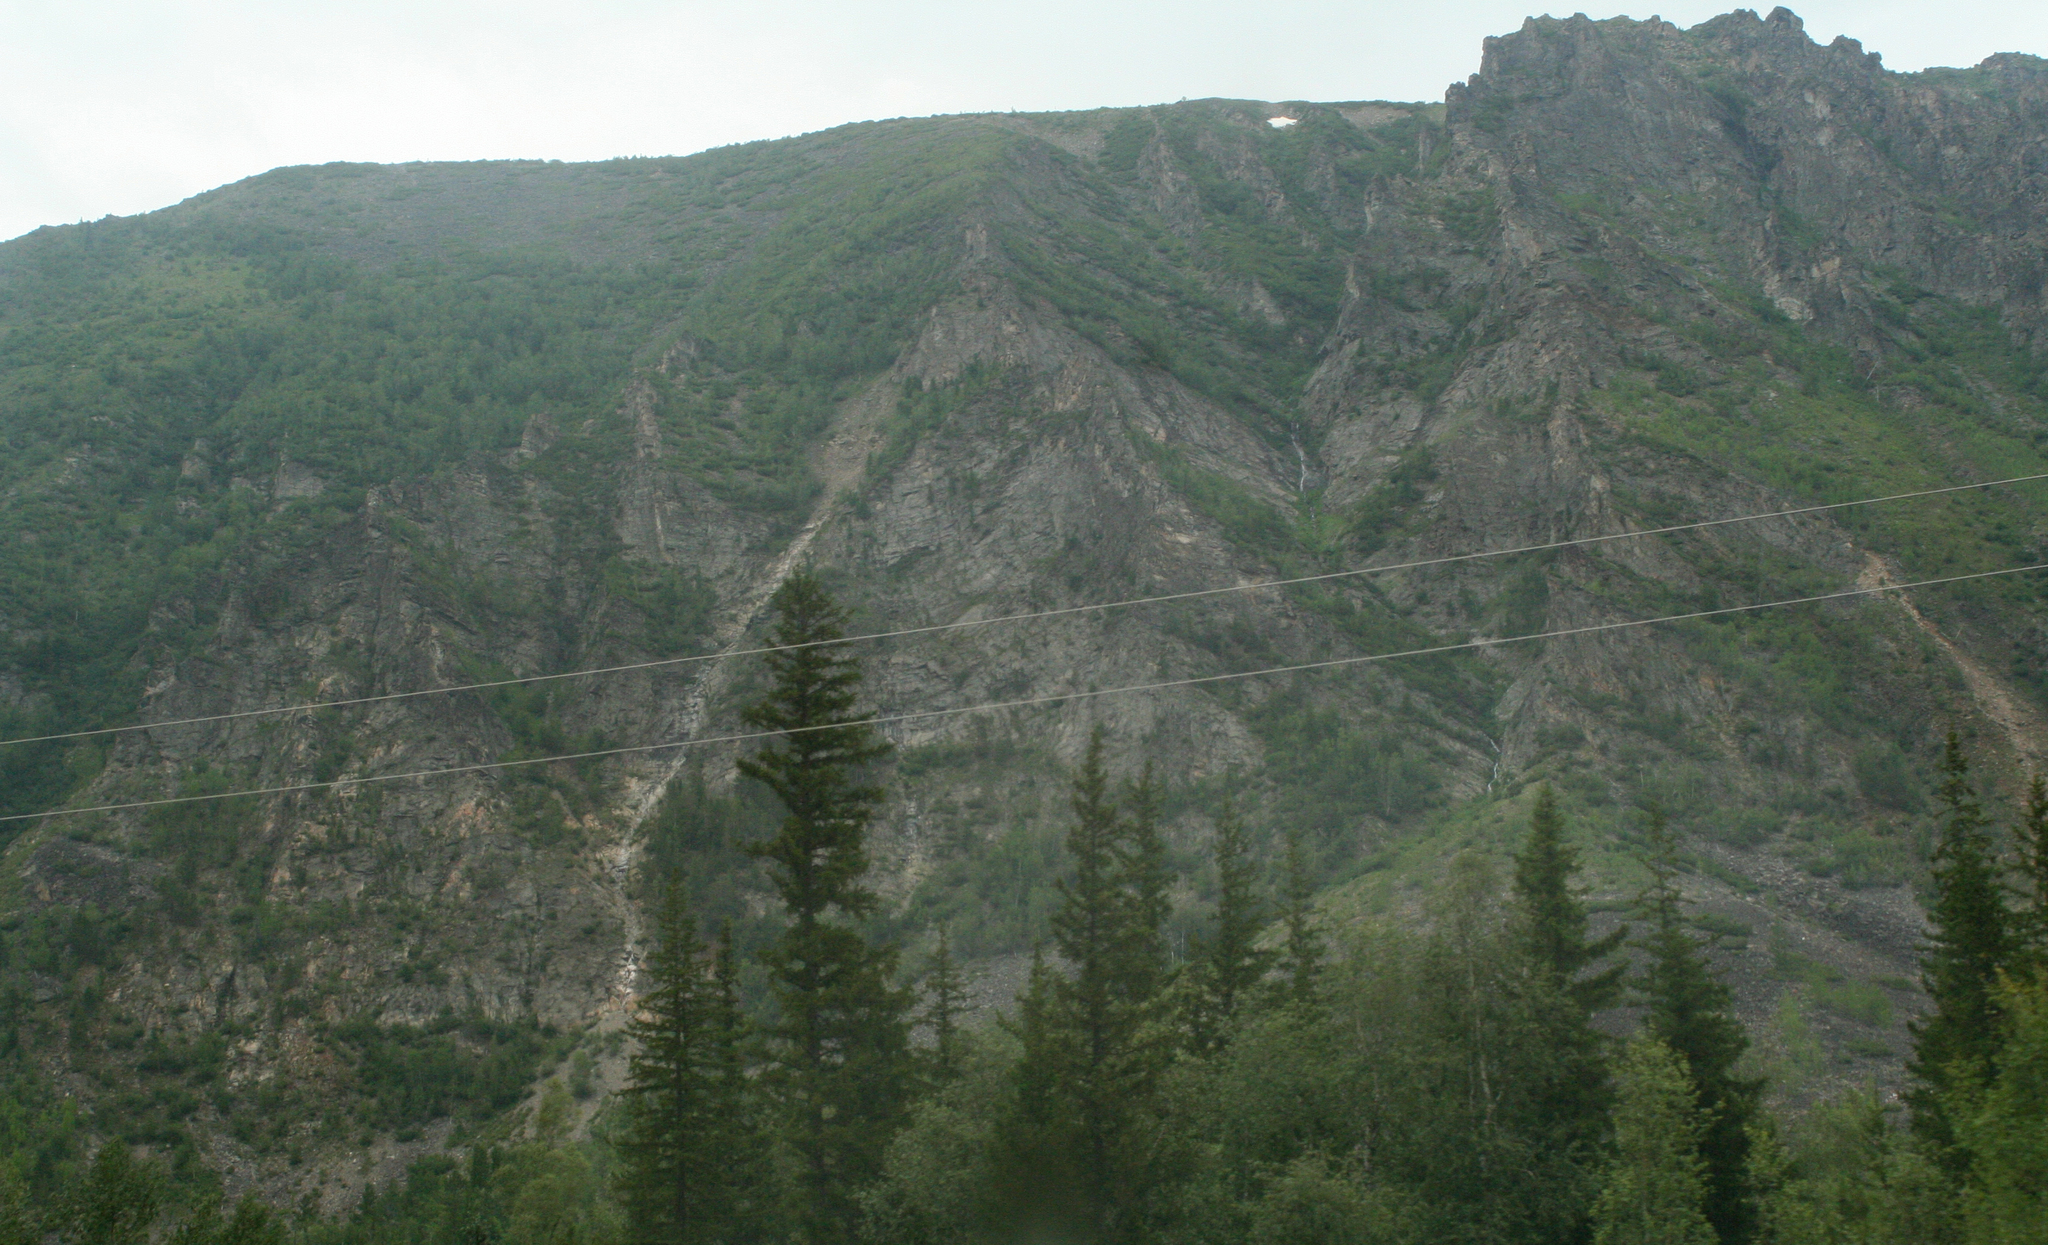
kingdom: Plantae
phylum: Tracheophyta
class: Pinopsida
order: Pinales
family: Pinaceae
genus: Picea
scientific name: Picea obovata
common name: Siberian spruce
